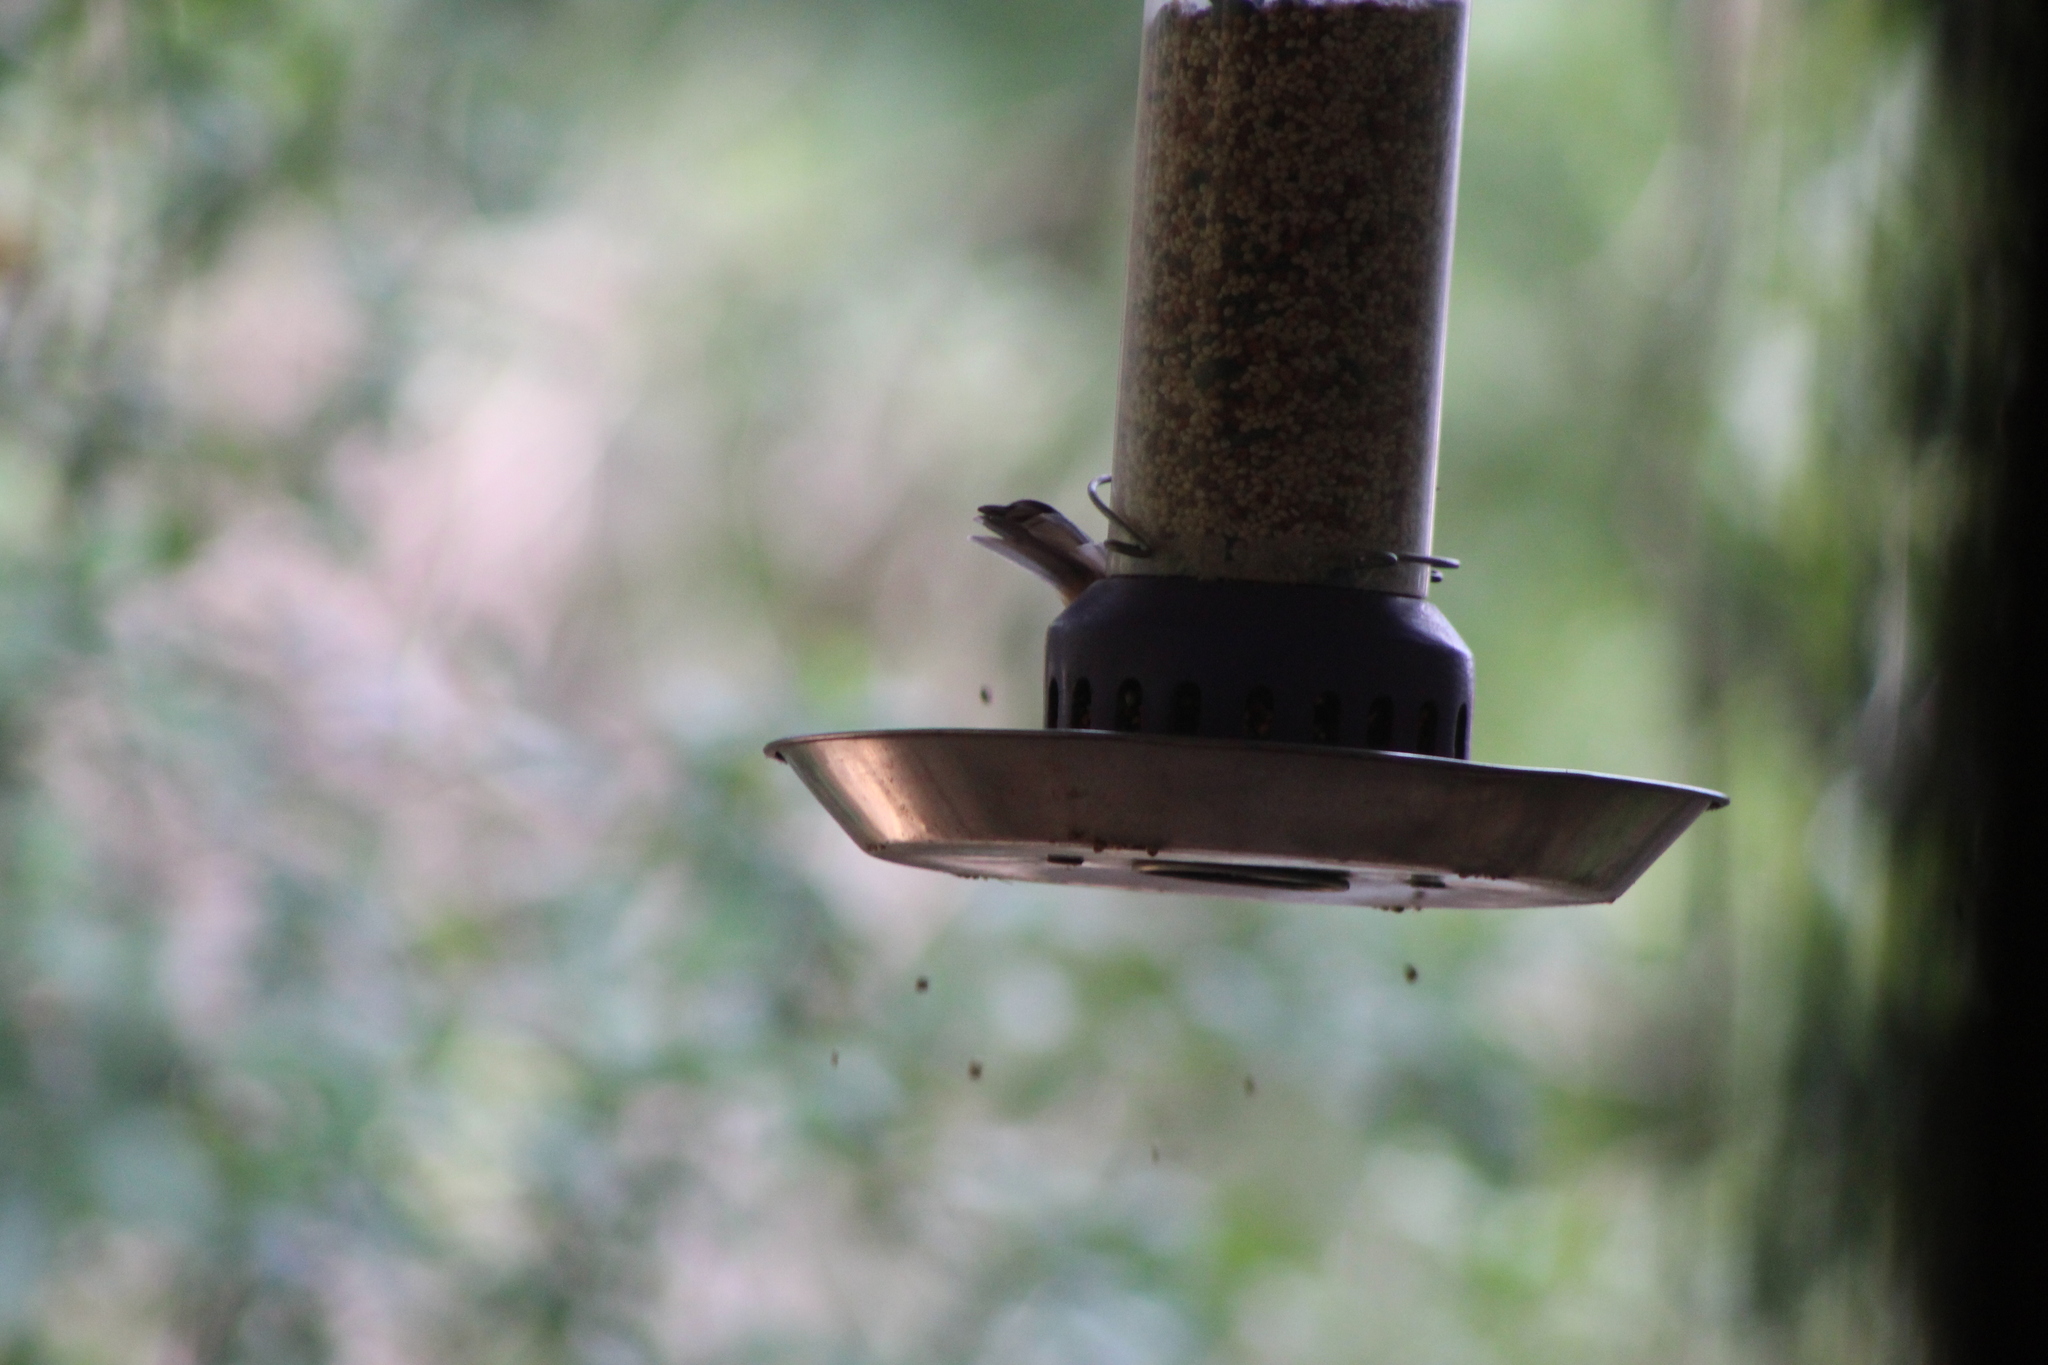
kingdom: Animalia
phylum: Chordata
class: Aves
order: Passeriformes
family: Paridae
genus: Baeolophus
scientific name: Baeolophus bicolor
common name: Tufted titmouse
